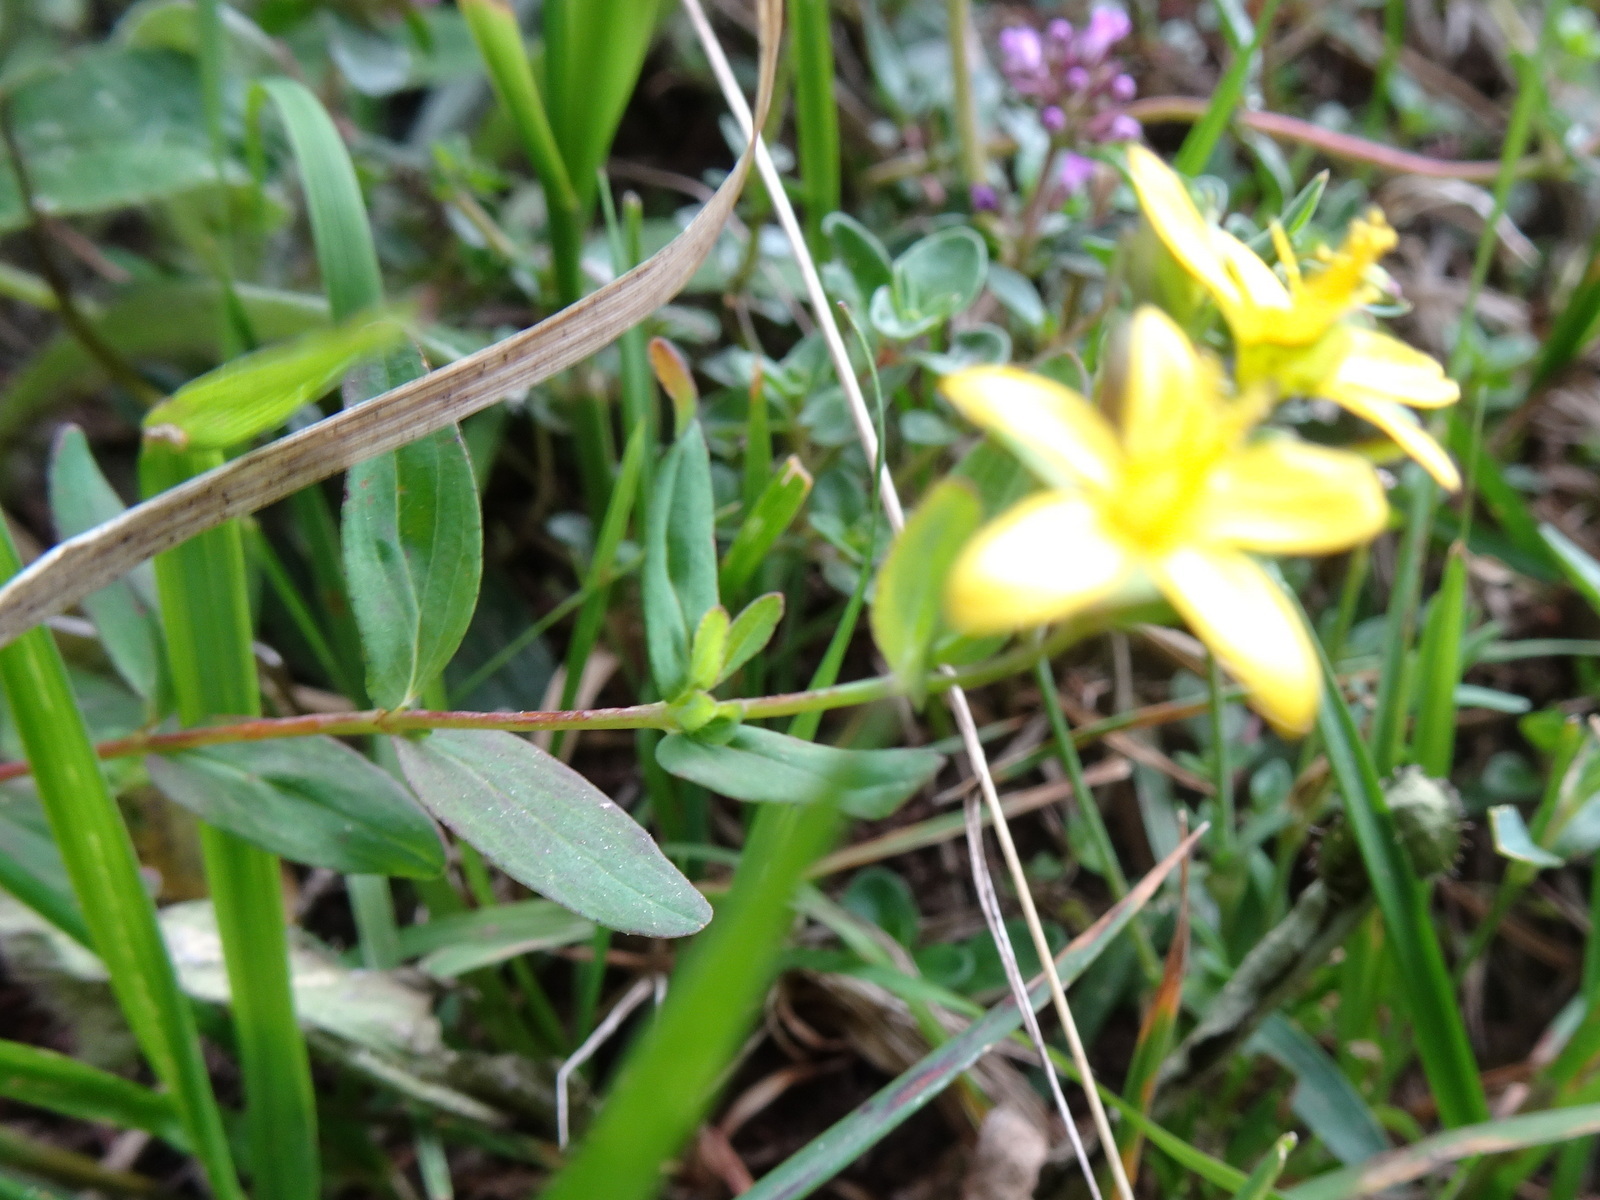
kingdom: Plantae
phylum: Tracheophyta
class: Magnoliopsida
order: Malpighiales
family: Hypericaceae
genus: Hypericum
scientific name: Hypericum humifusum
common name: Trailing st. john's-wort
